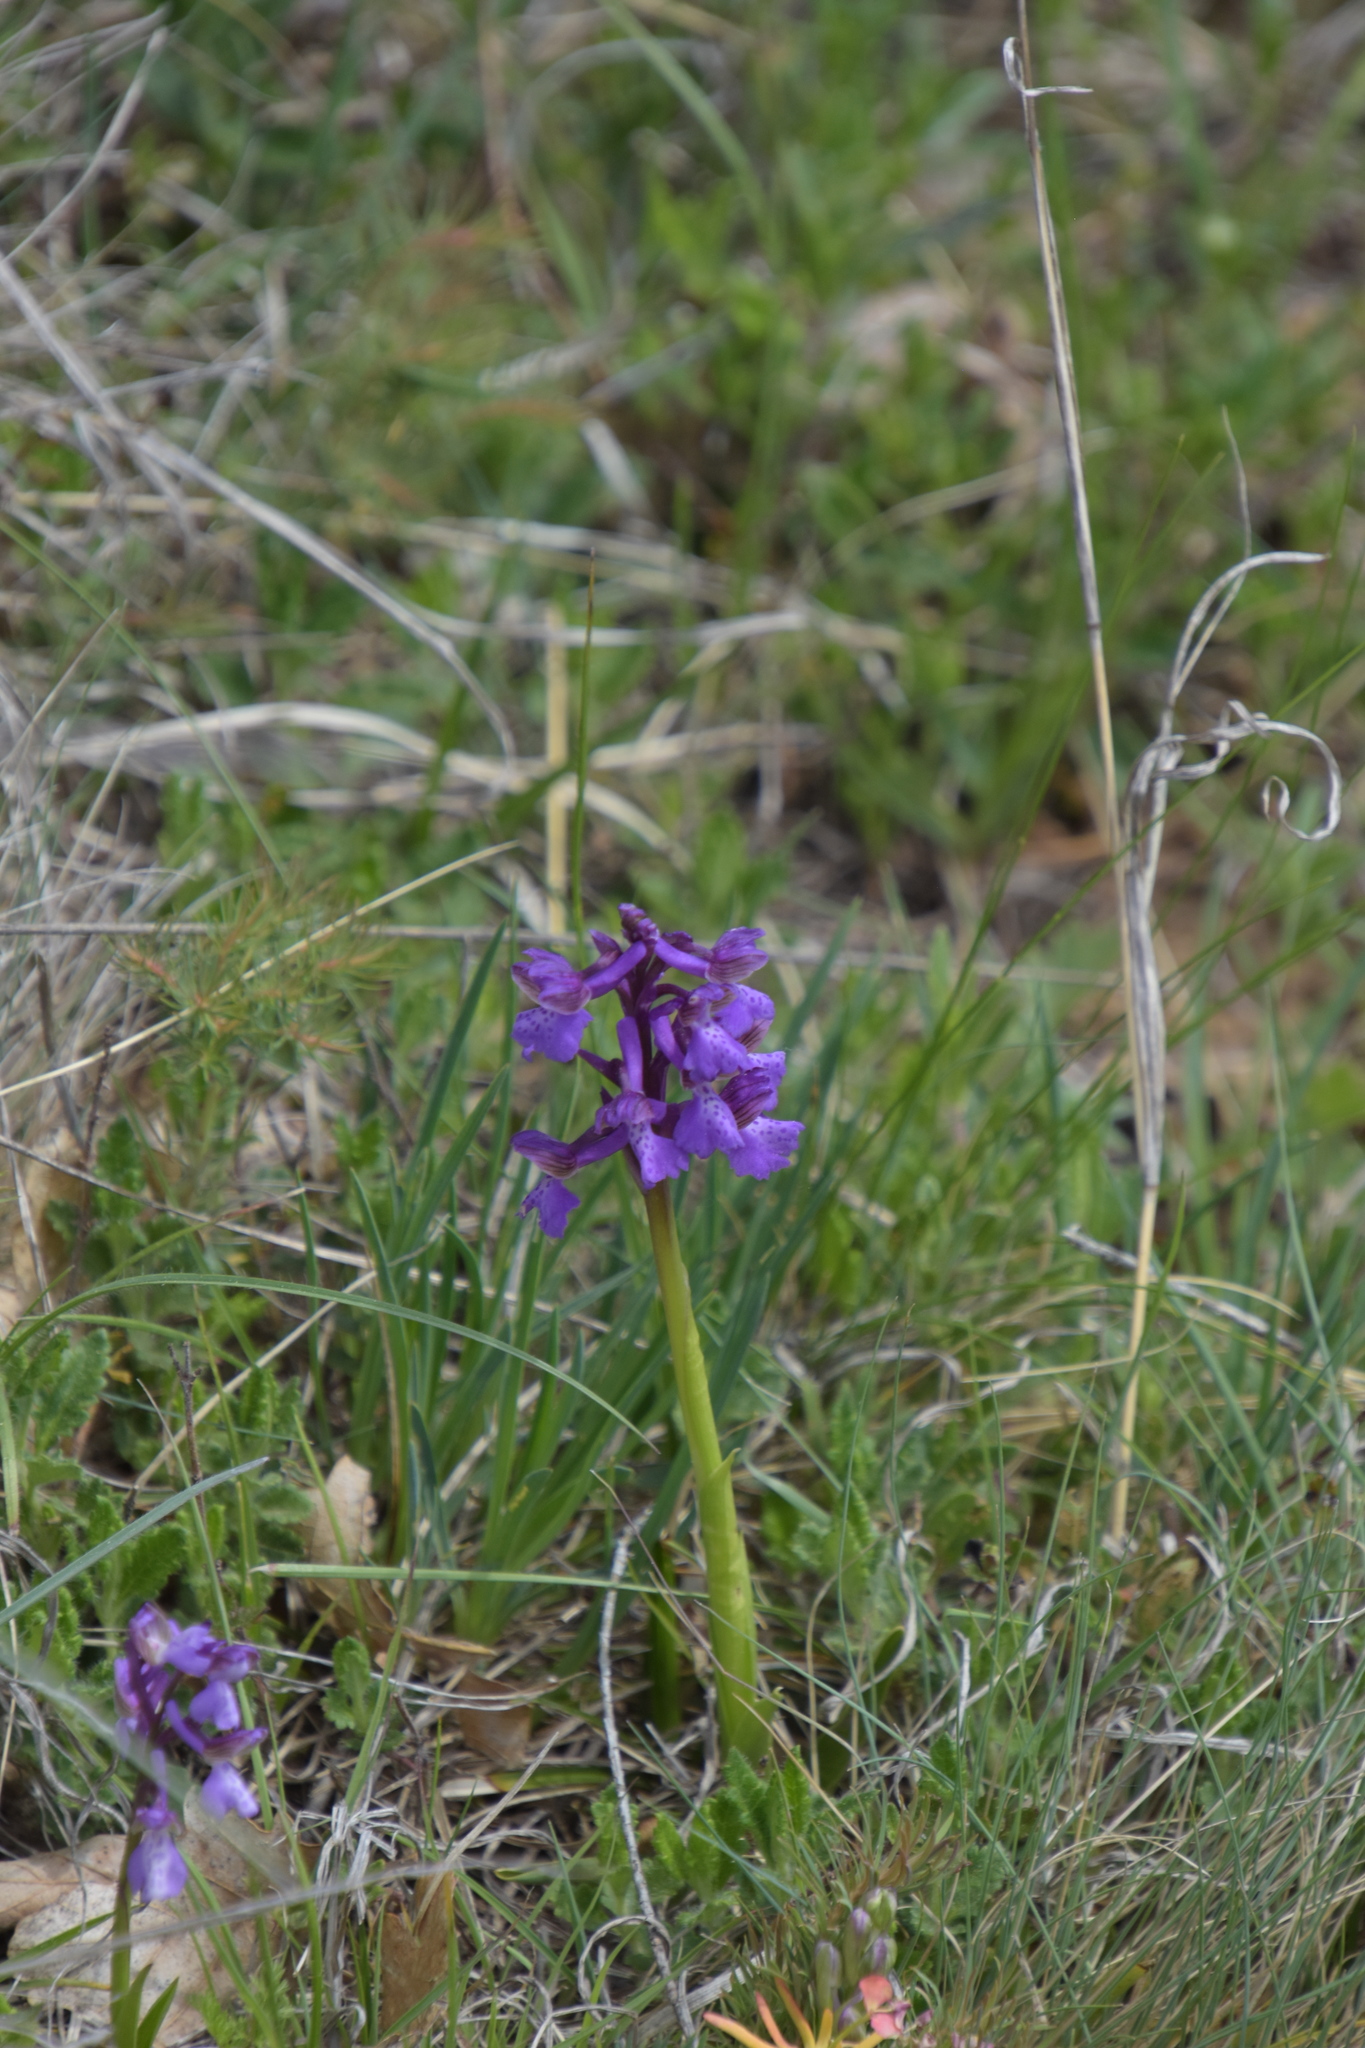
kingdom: Plantae
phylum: Tracheophyta
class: Liliopsida
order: Asparagales
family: Orchidaceae
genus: Anacamptis
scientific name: Anacamptis morio
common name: Green-winged orchid
